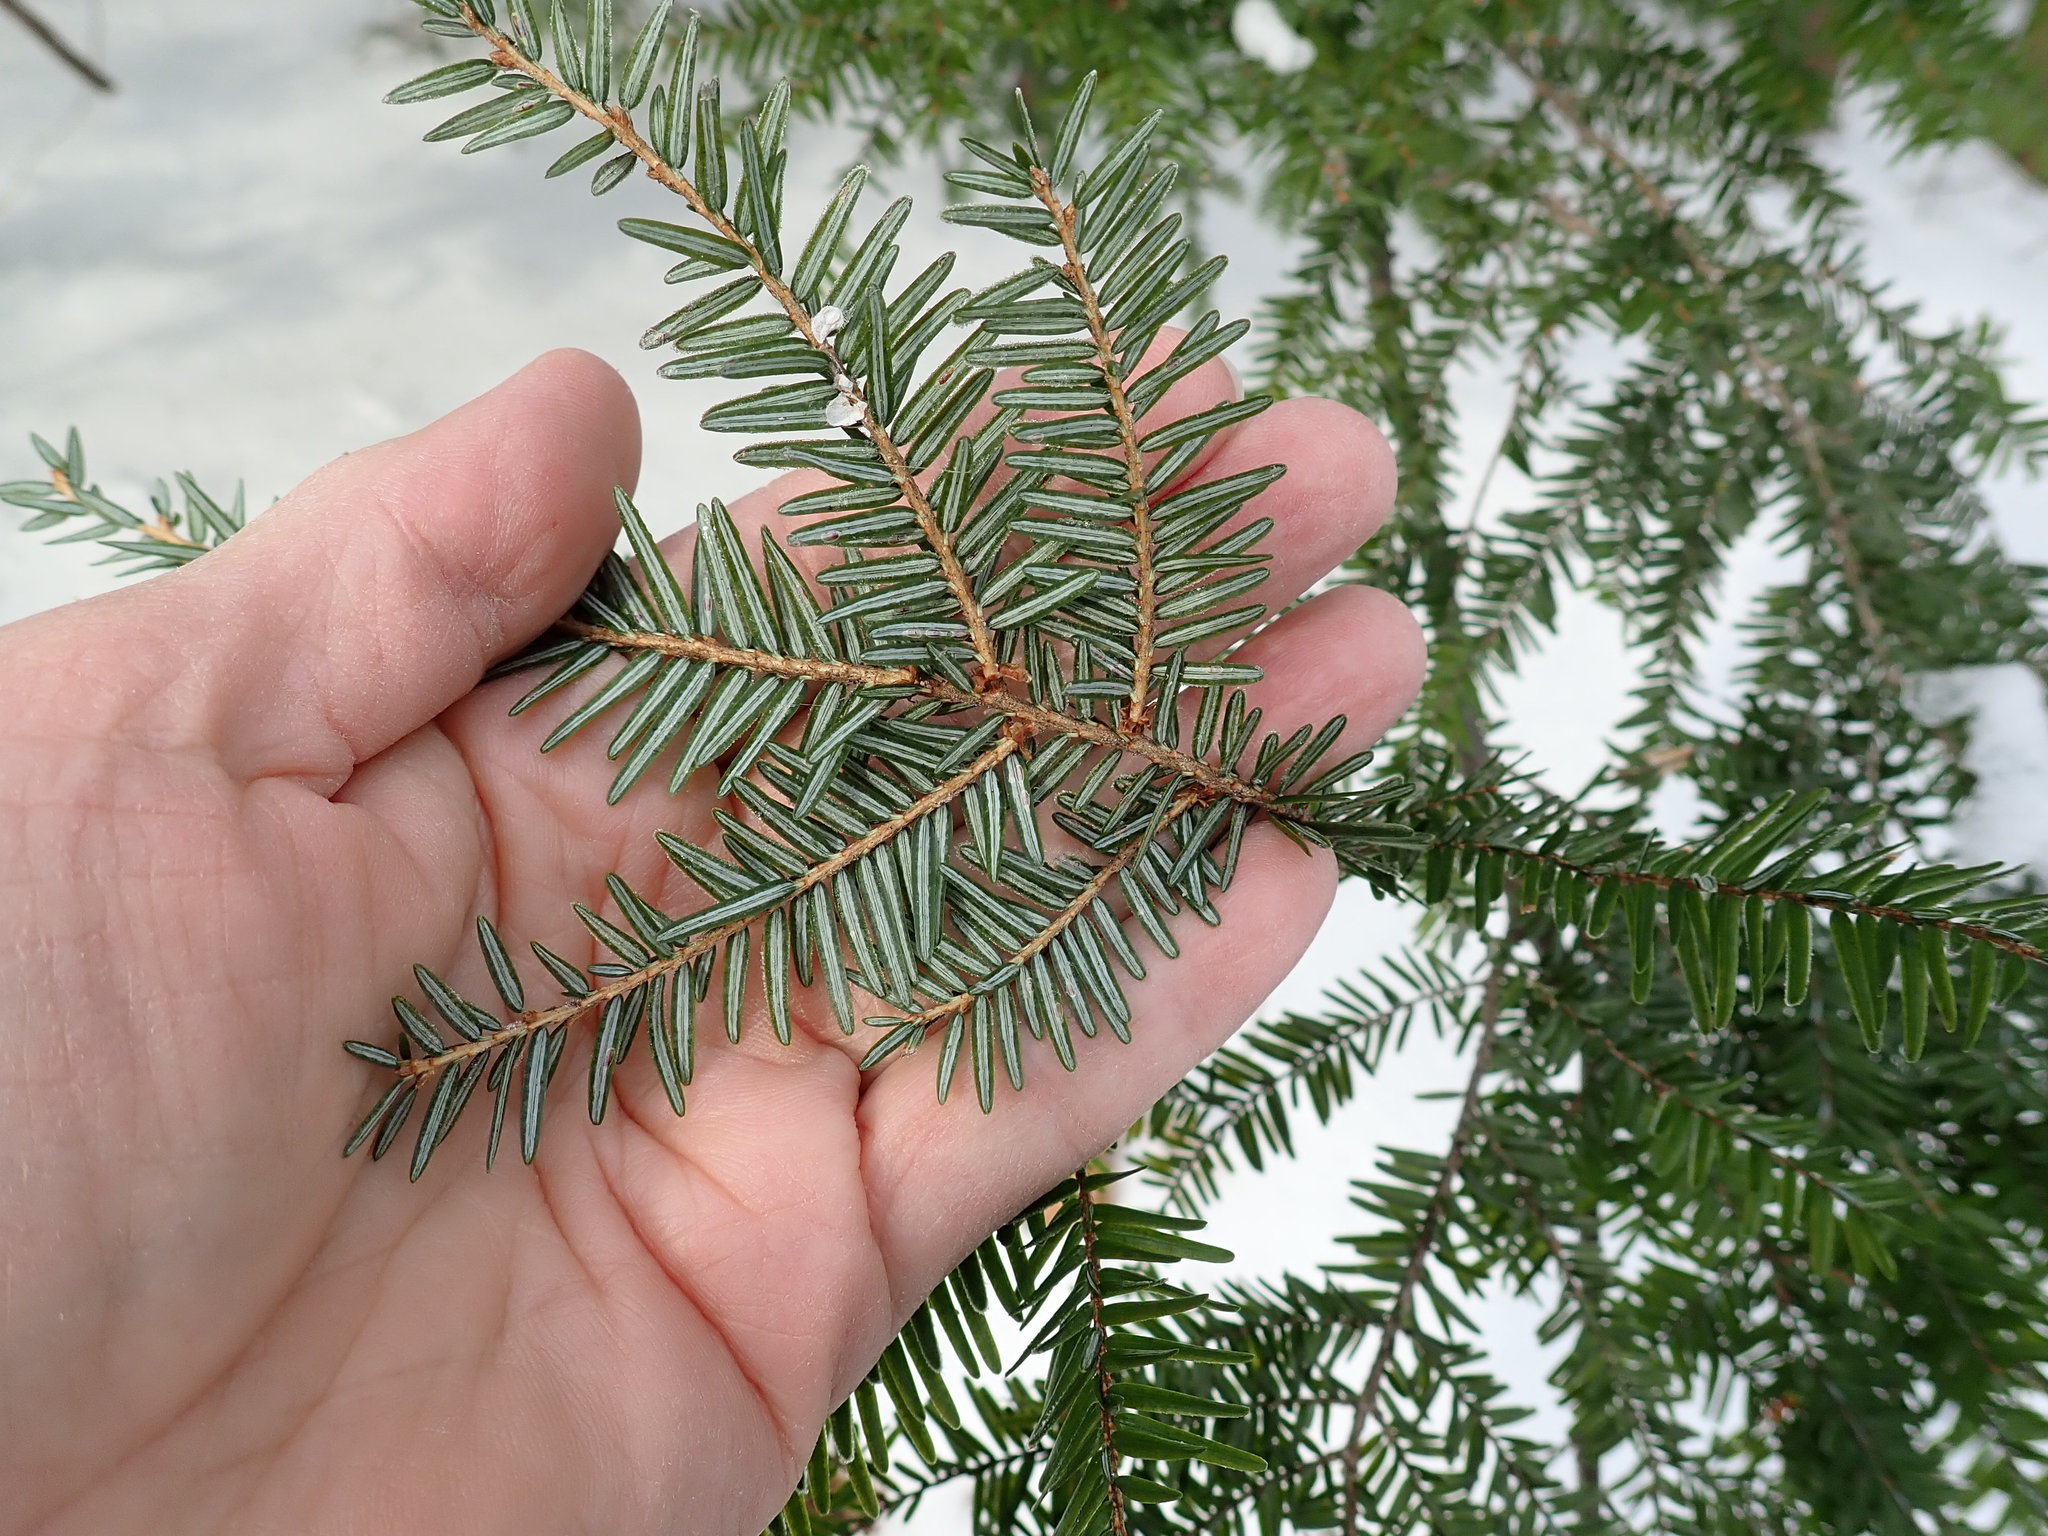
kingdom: Plantae
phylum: Tracheophyta
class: Pinopsida
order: Pinales
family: Pinaceae
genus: Tsuga
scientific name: Tsuga canadensis
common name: Eastern hemlock
